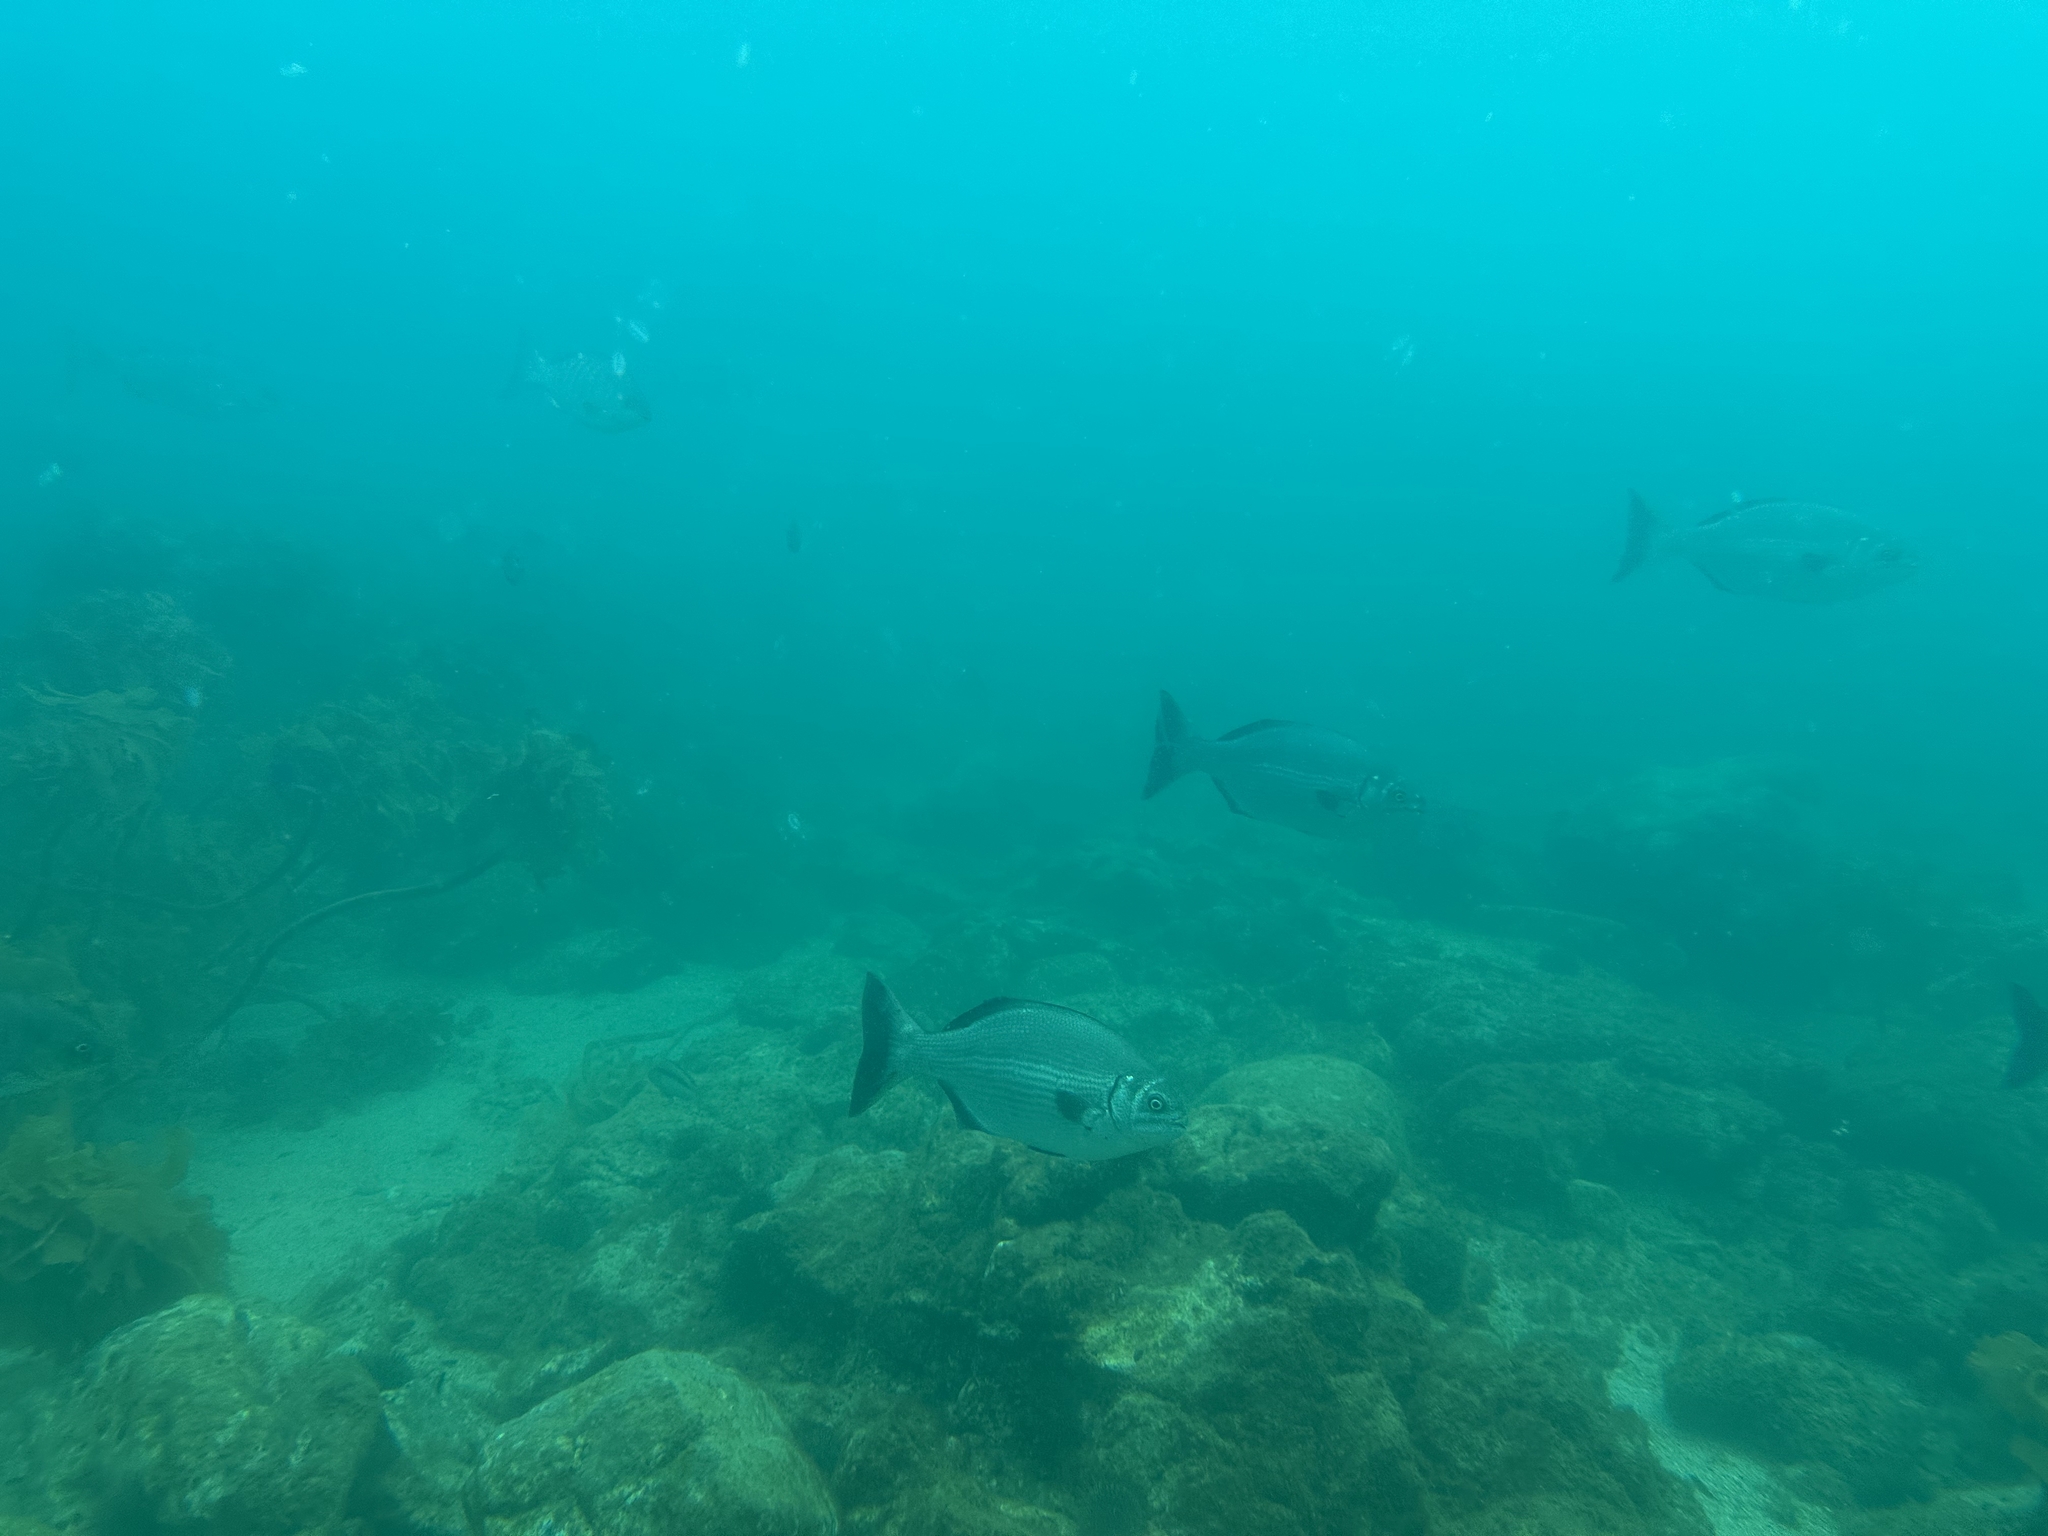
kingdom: Animalia
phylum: Chordata
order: Perciformes
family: Kyphosidae
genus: Kyphosus
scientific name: Kyphosus sydneyanus
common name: Silver drummer
